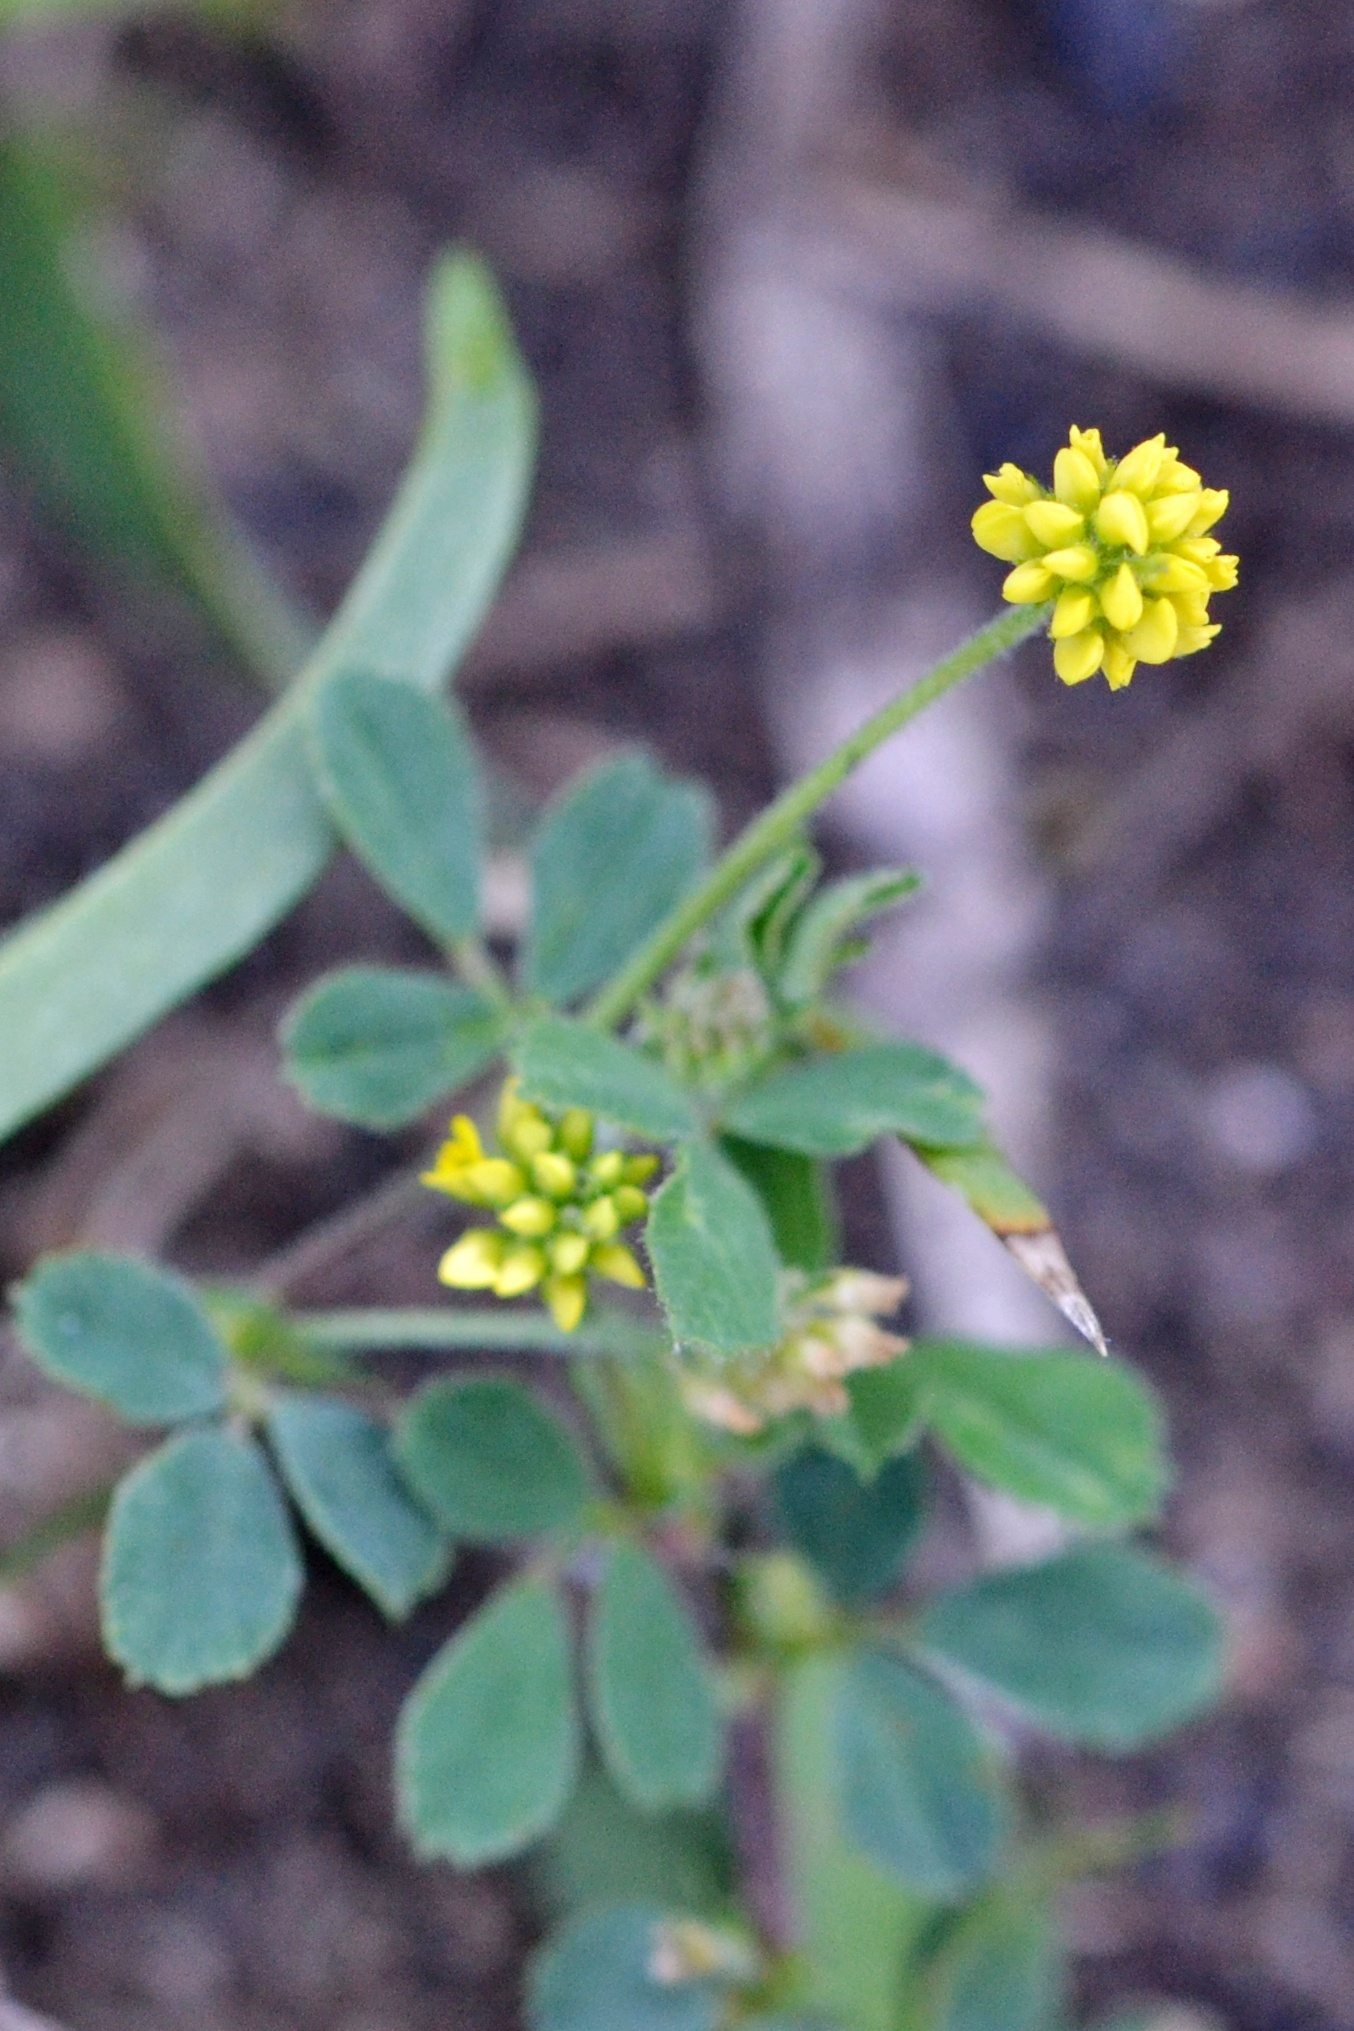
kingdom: Plantae
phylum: Tracheophyta
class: Magnoliopsida
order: Fabales
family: Fabaceae
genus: Medicago
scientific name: Medicago lupulina
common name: Black medick
